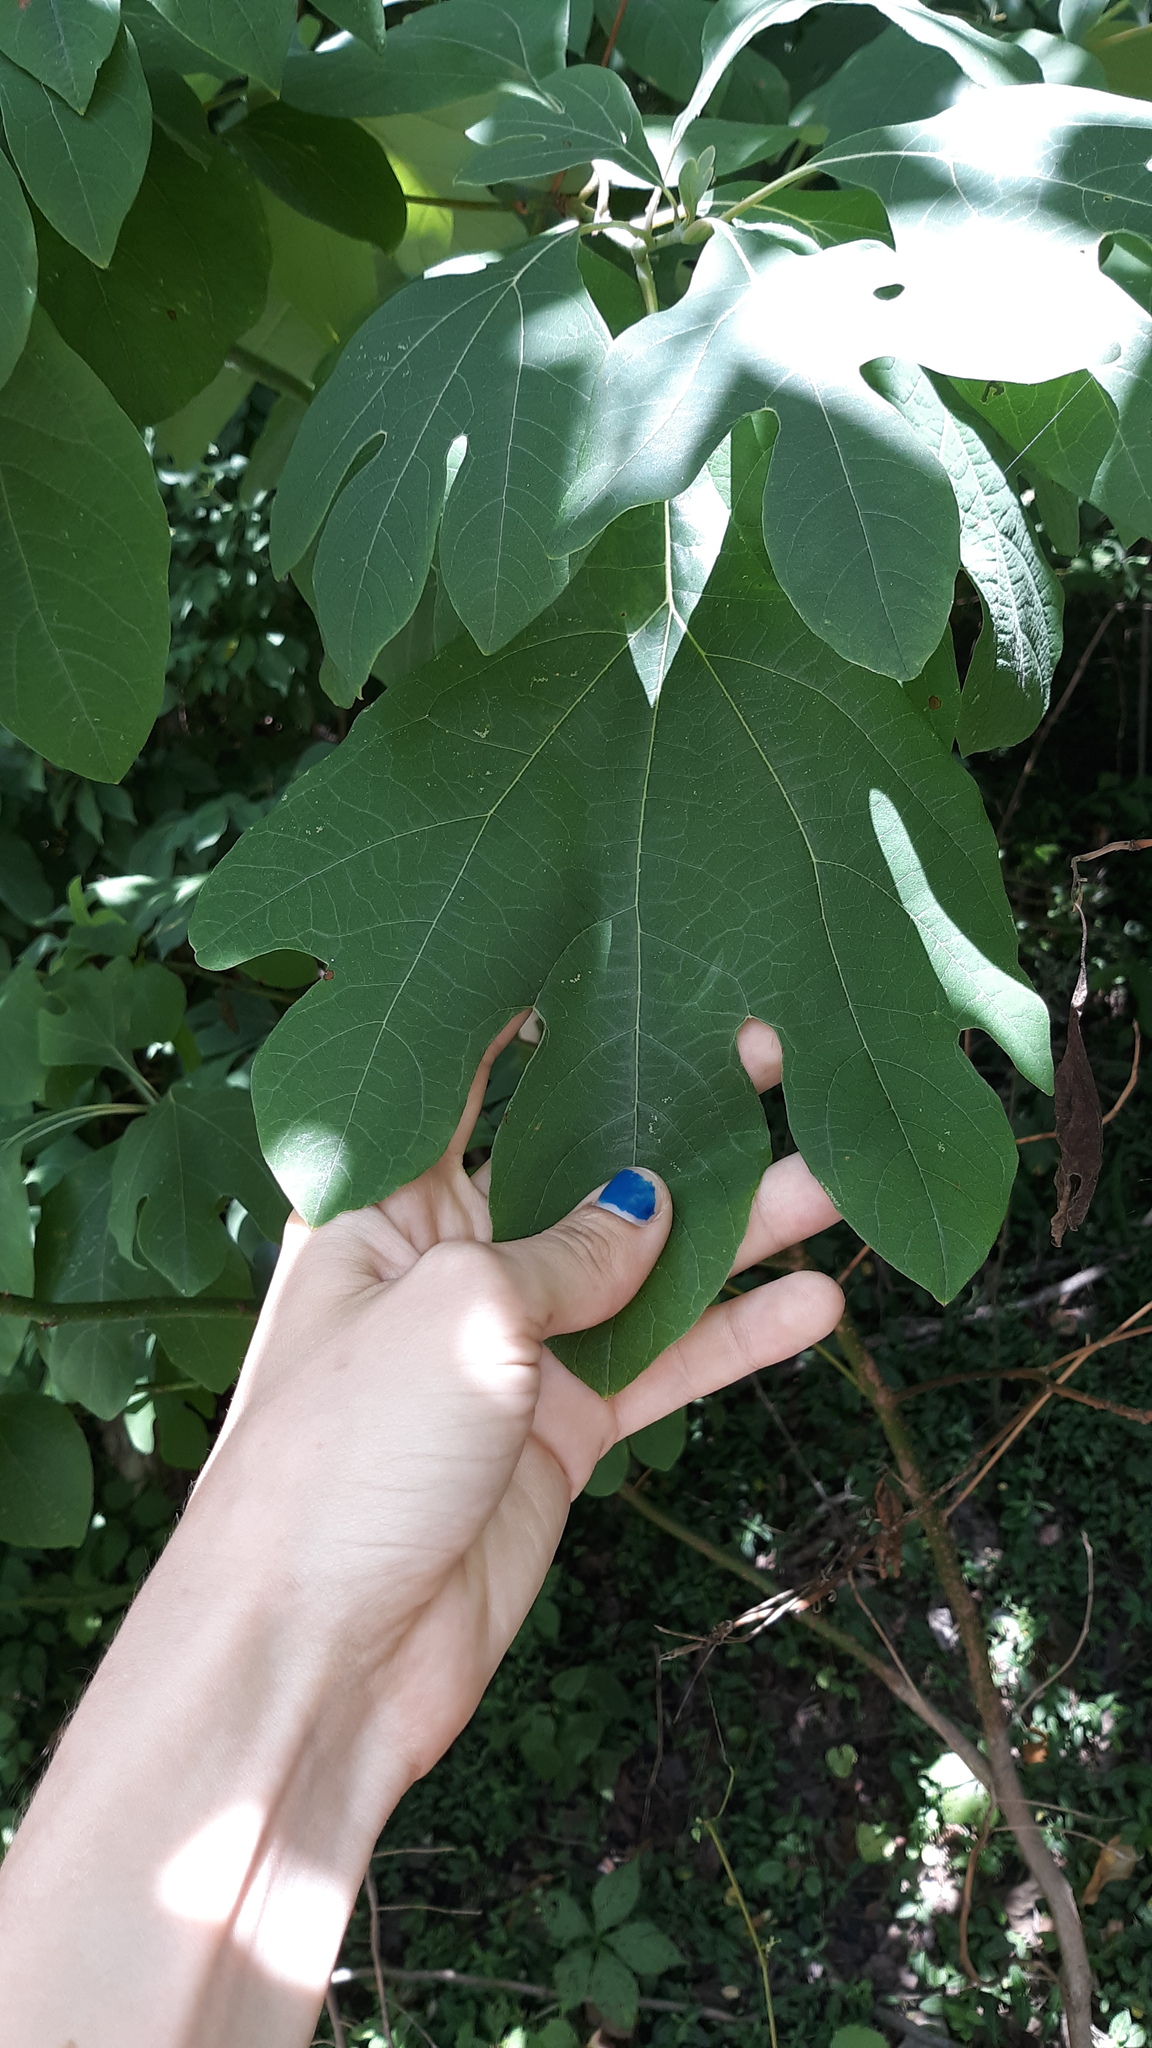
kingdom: Plantae
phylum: Tracheophyta
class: Magnoliopsida
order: Laurales
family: Lauraceae
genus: Sassafras
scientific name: Sassafras albidum
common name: Sassafras
